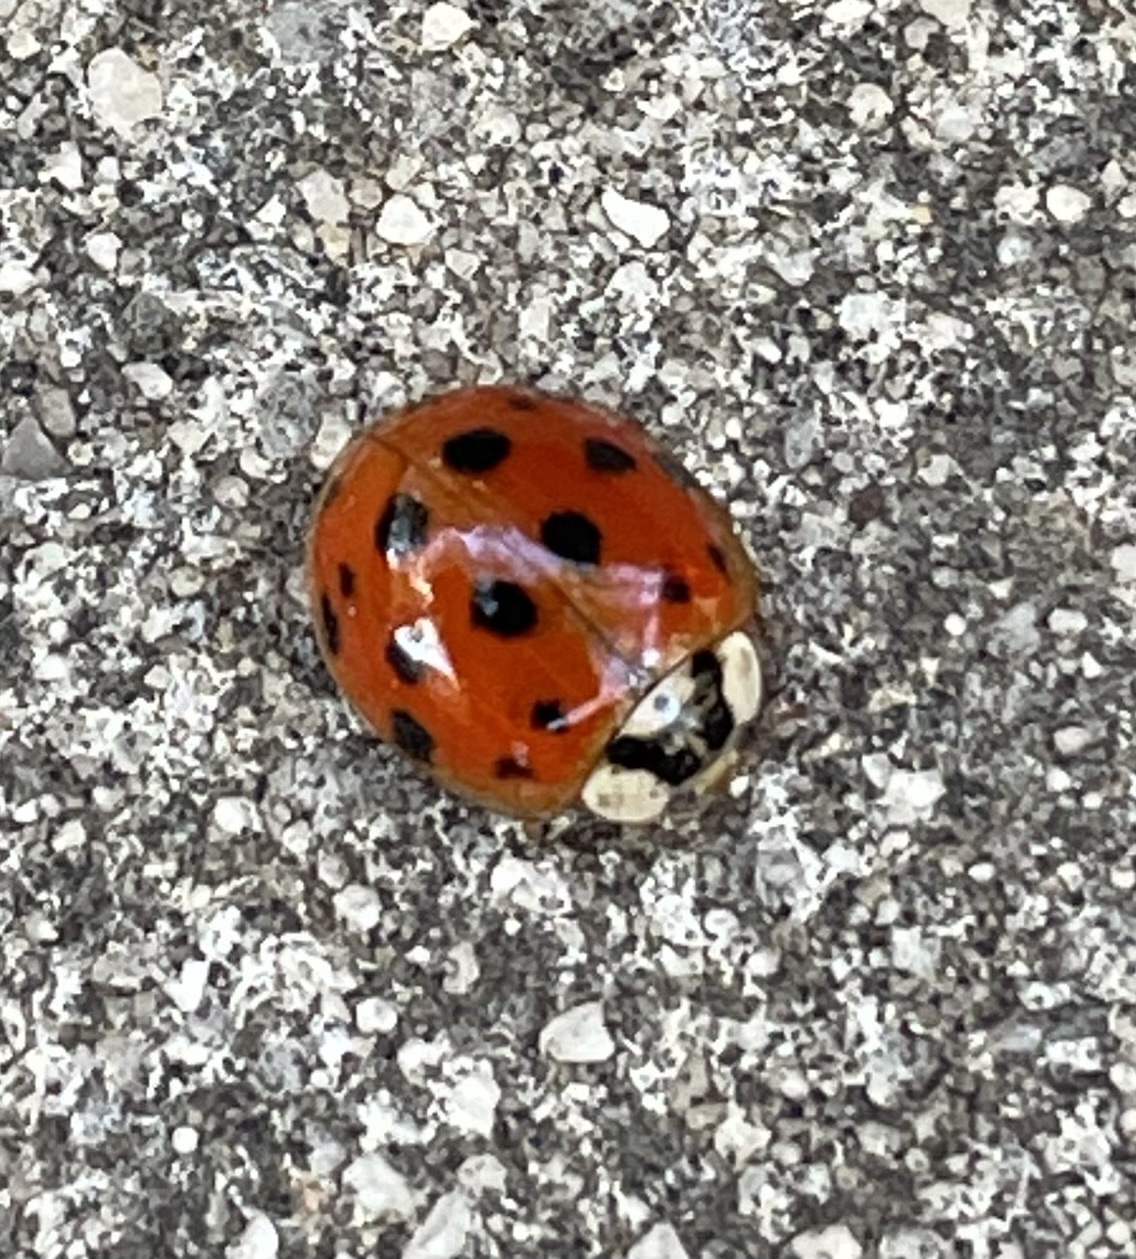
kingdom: Animalia
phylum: Arthropoda
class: Insecta
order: Coleoptera
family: Coccinellidae
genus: Harmonia
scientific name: Harmonia axyridis
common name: Harlequin ladybird
